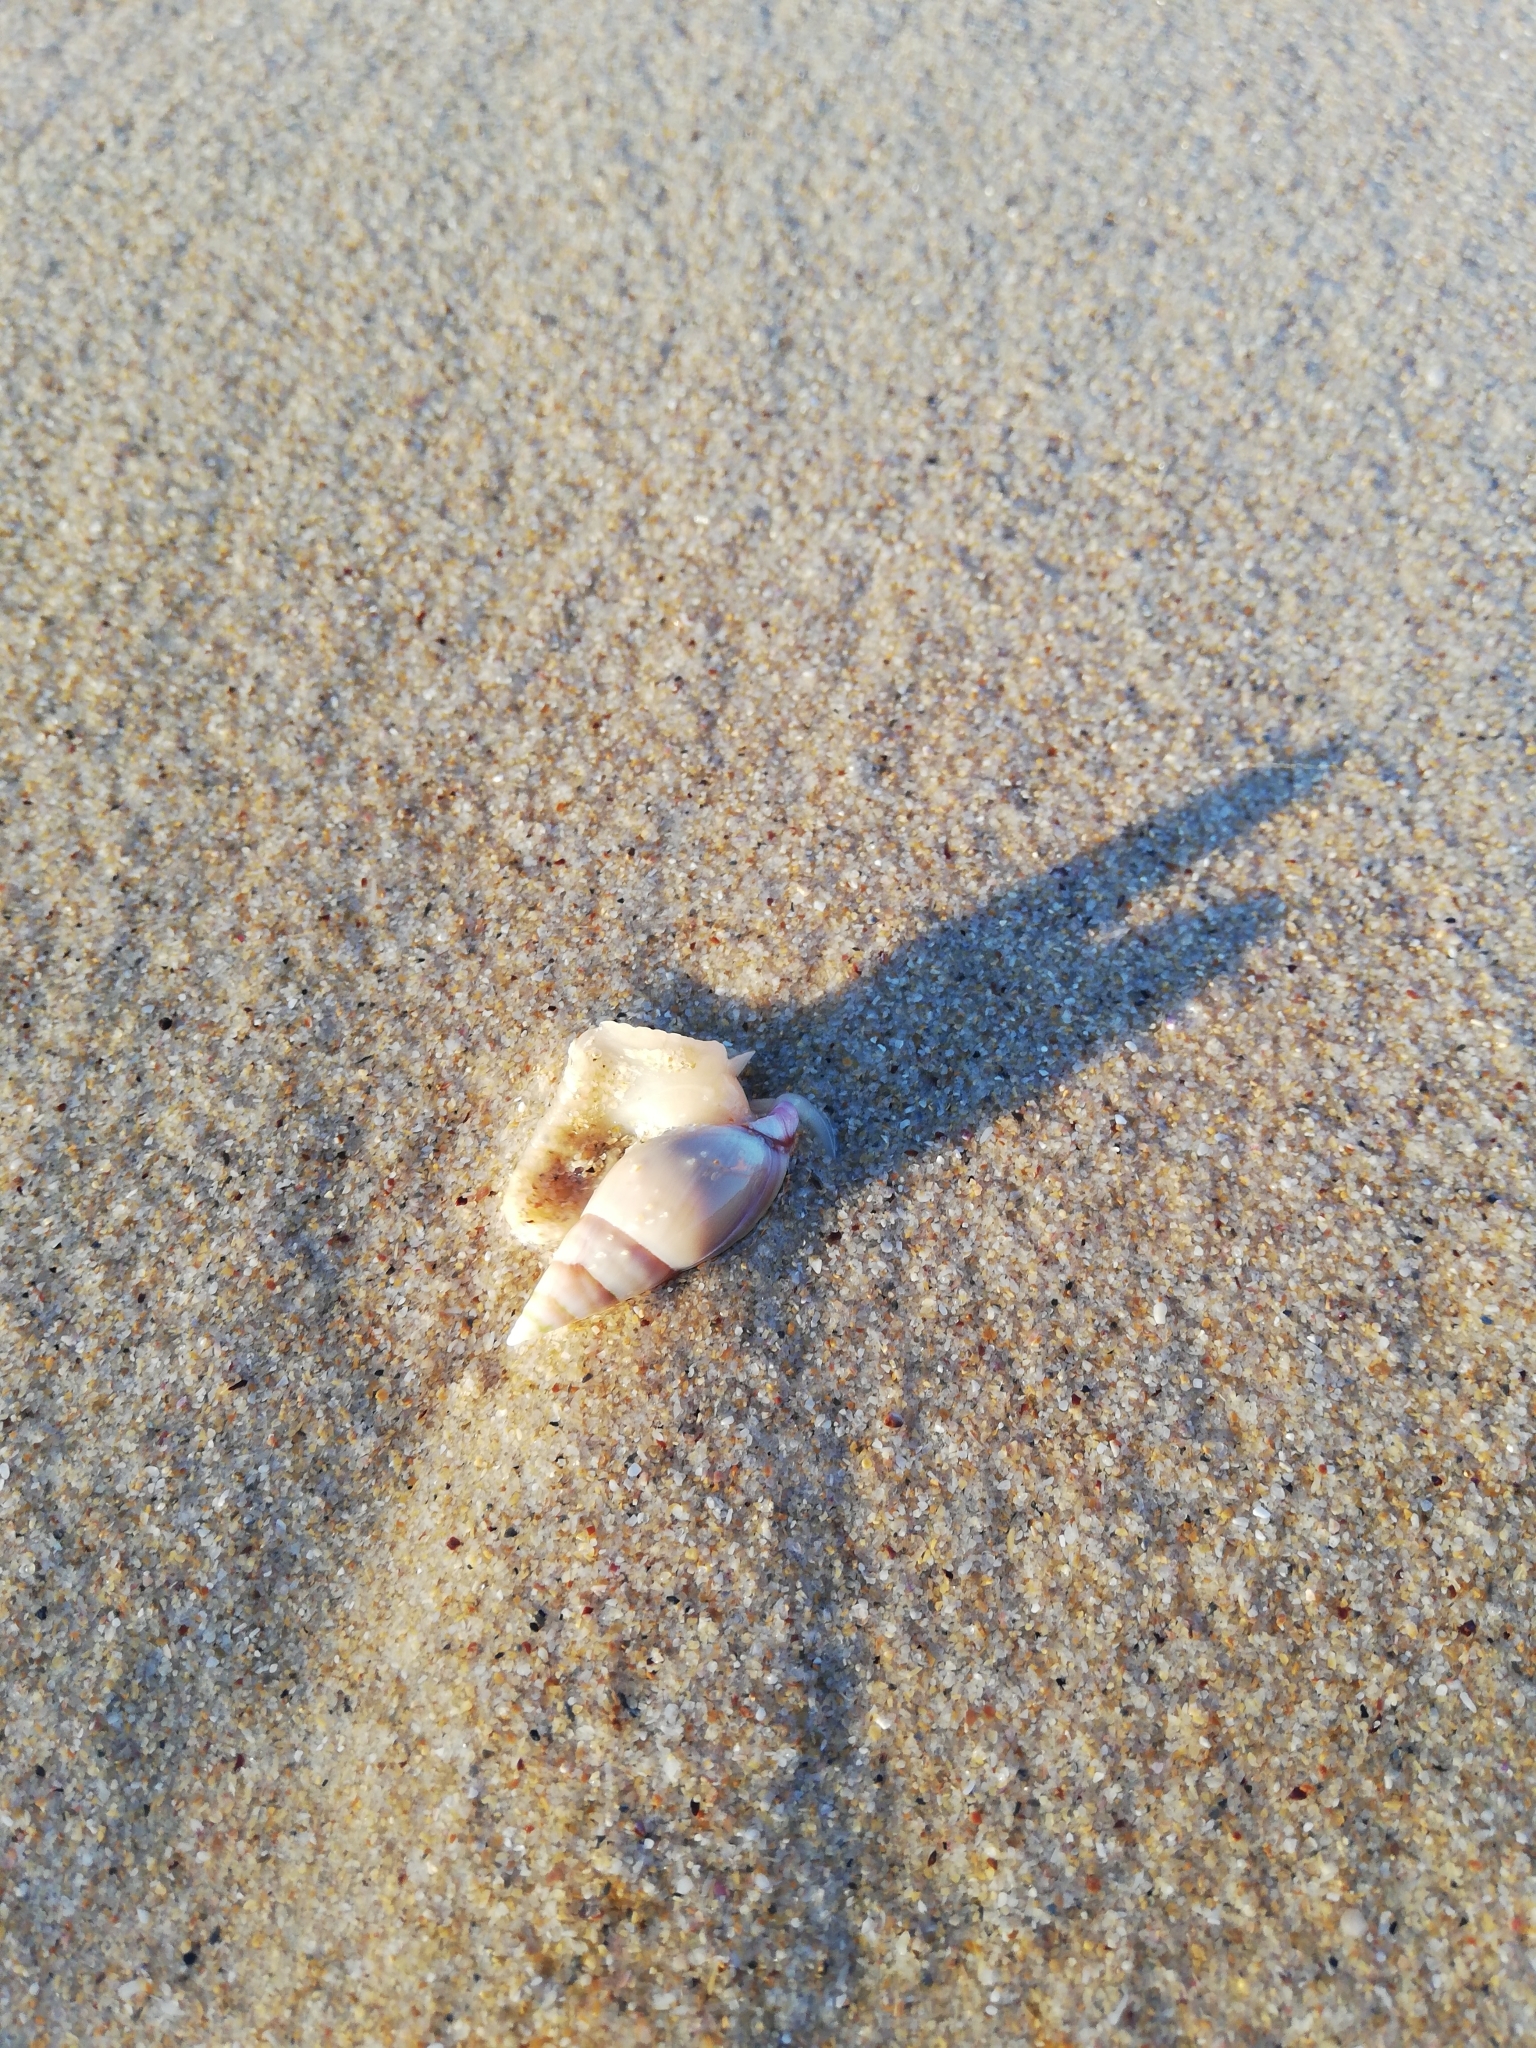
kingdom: Animalia
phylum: Mollusca
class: Gastropoda
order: Neogastropoda
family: Nassariidae
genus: Bullia
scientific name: Bullia rhodostoma
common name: Smooth plough shell
